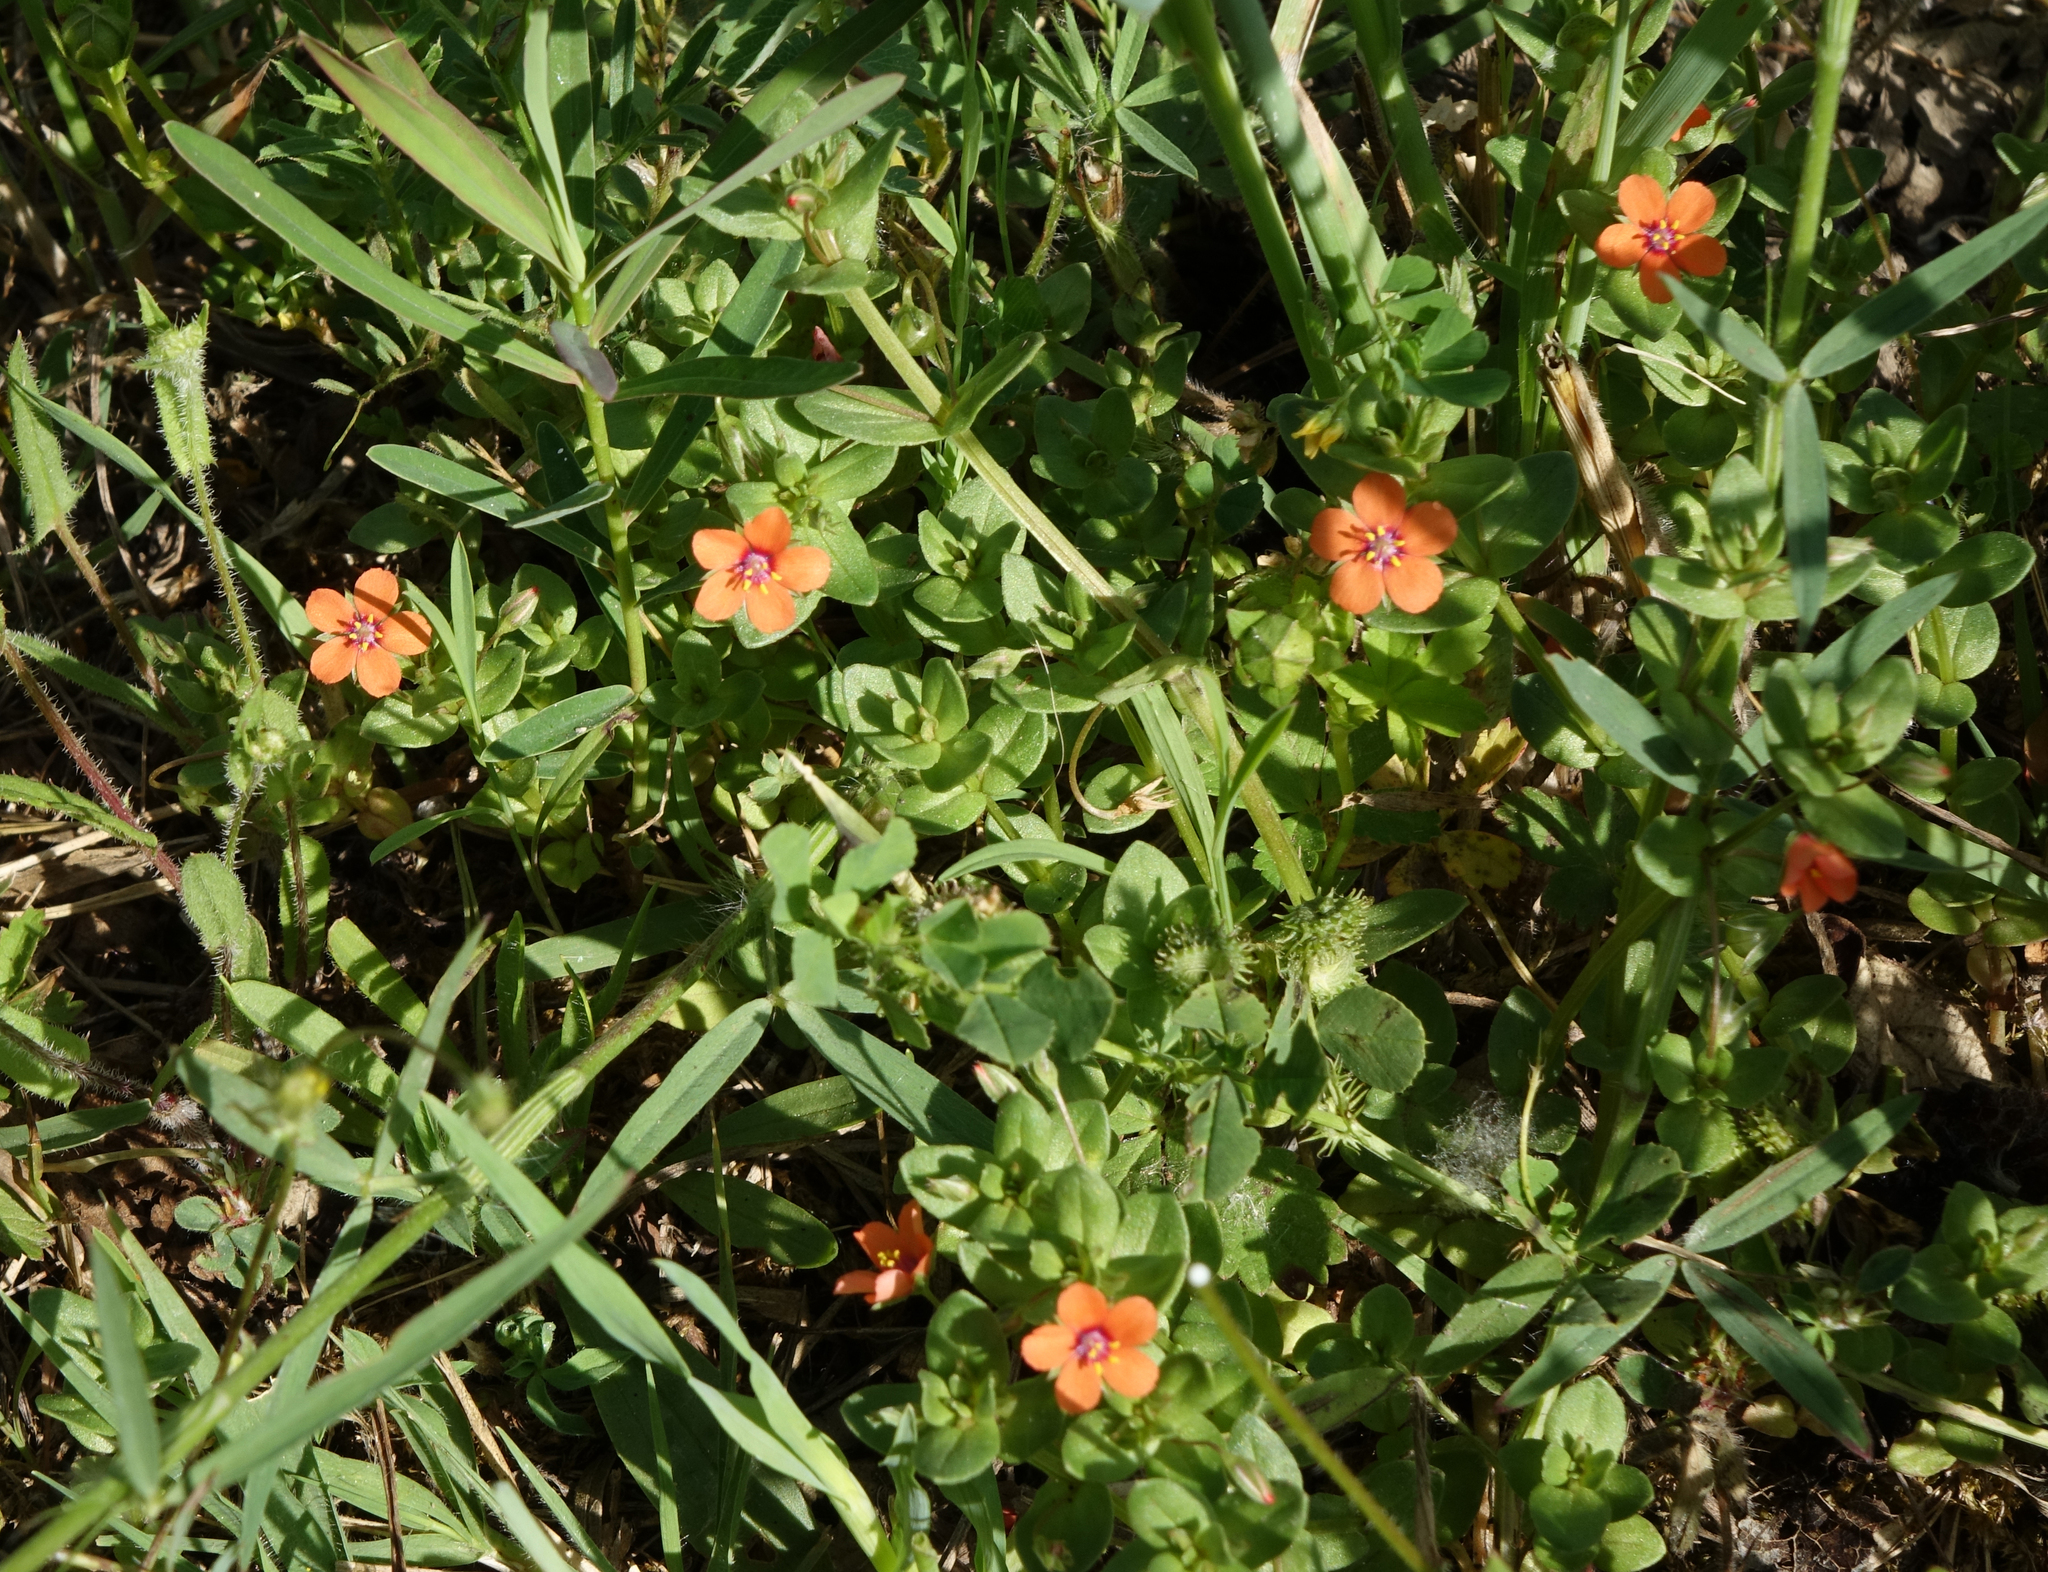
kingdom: Plantae
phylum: Tracheophyta
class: Magnoliopsida
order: Ericales
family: Primulaceae
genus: Lysimachia
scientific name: Lysimachia arvensis
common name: Scarlet pimpernel
